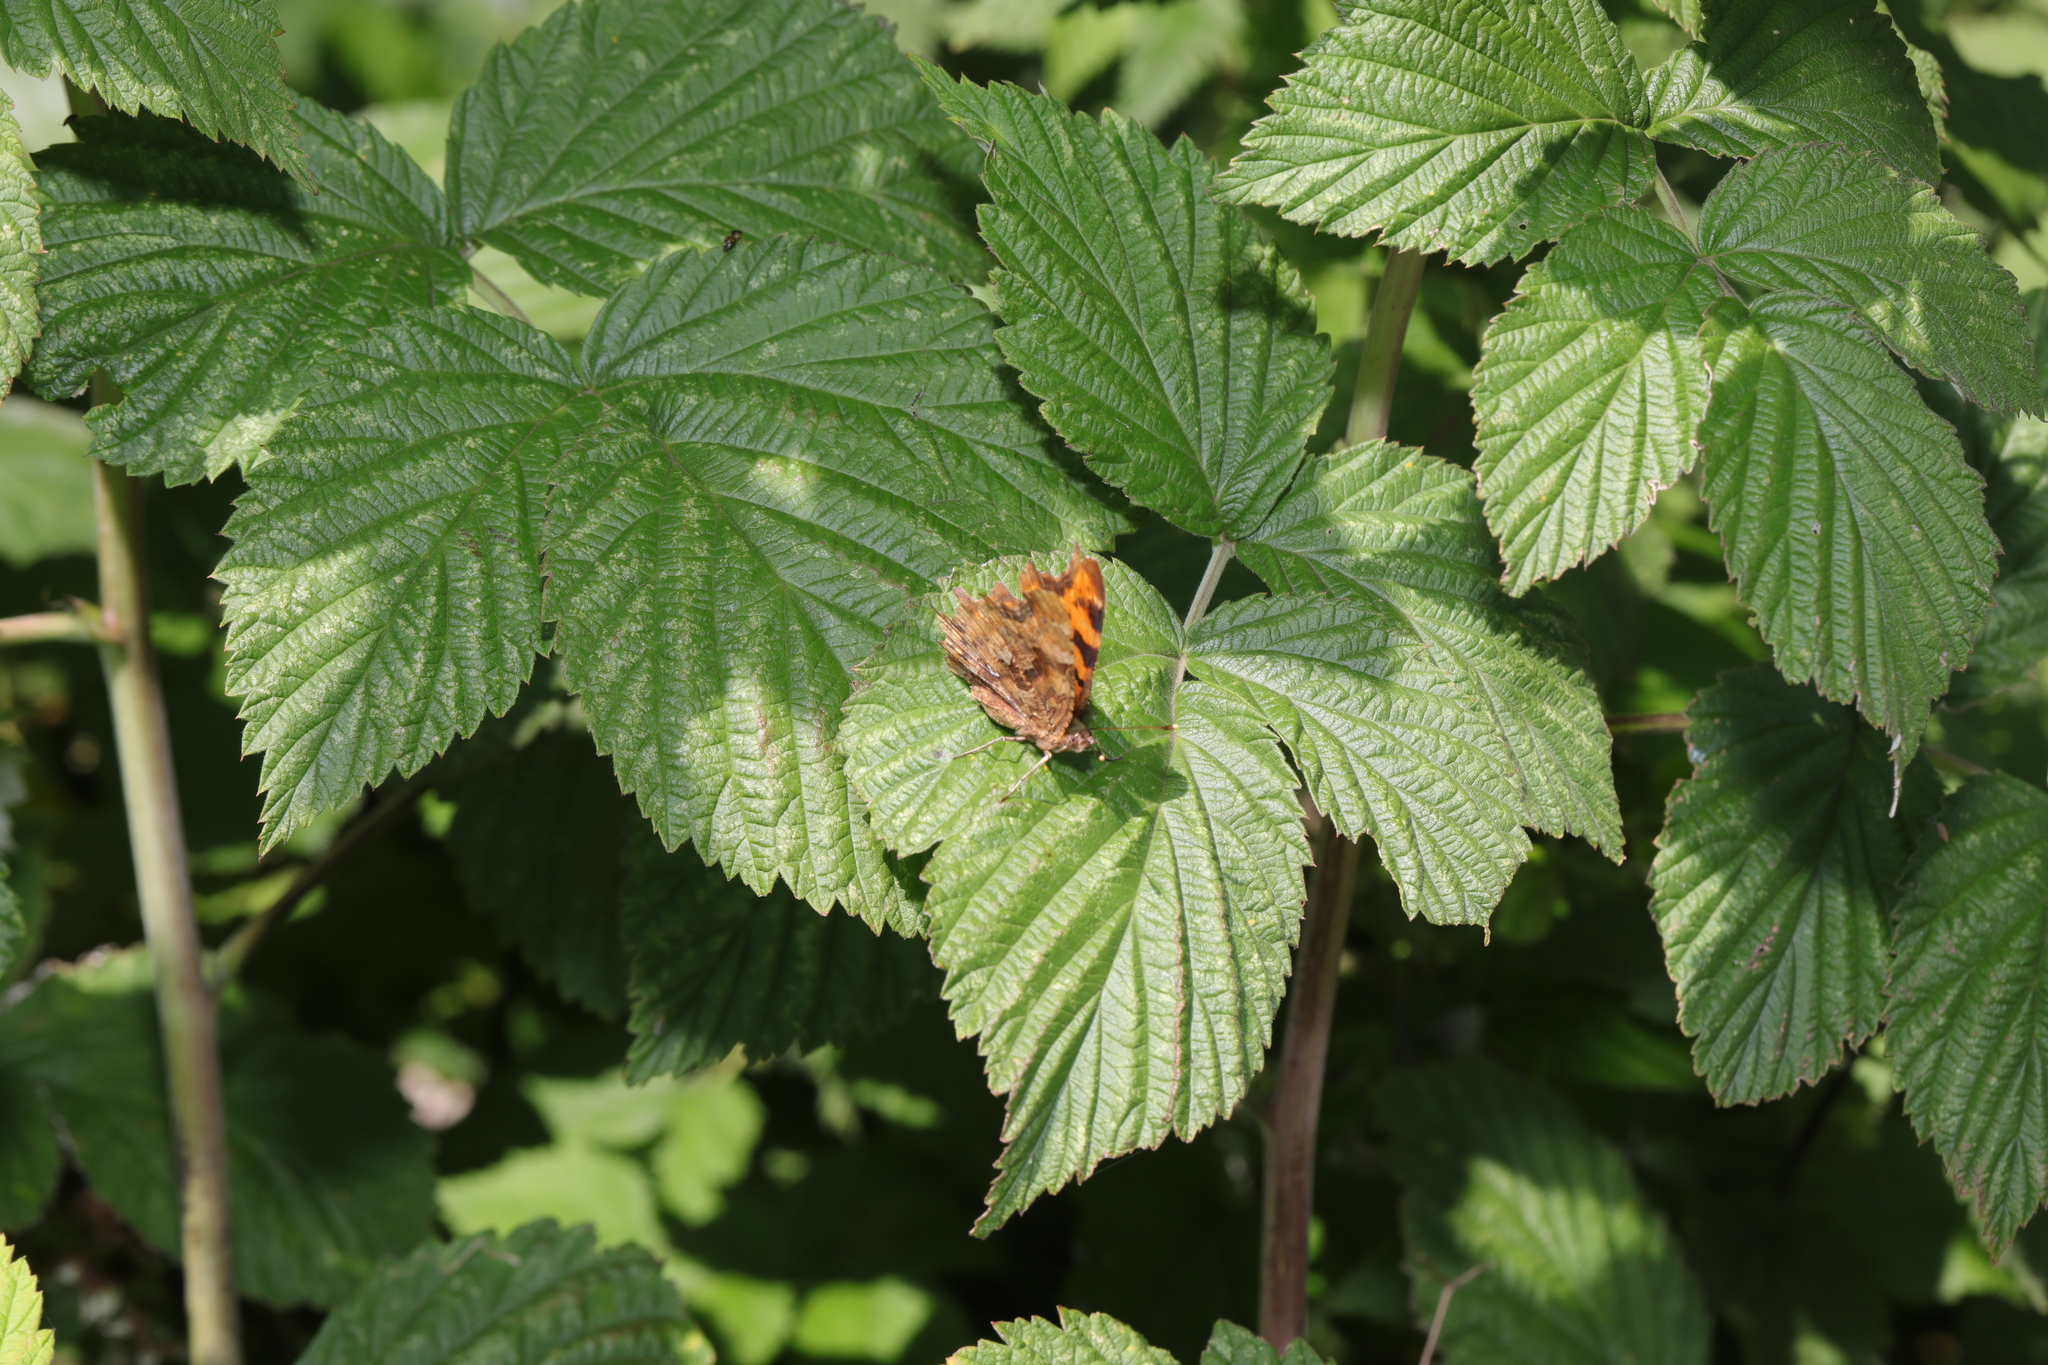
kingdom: Animalia
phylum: Arthropoda
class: Insecta
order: Lepidoptera
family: Nymphalidae
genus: Polygonia
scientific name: Polygonia c-album
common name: Comma
